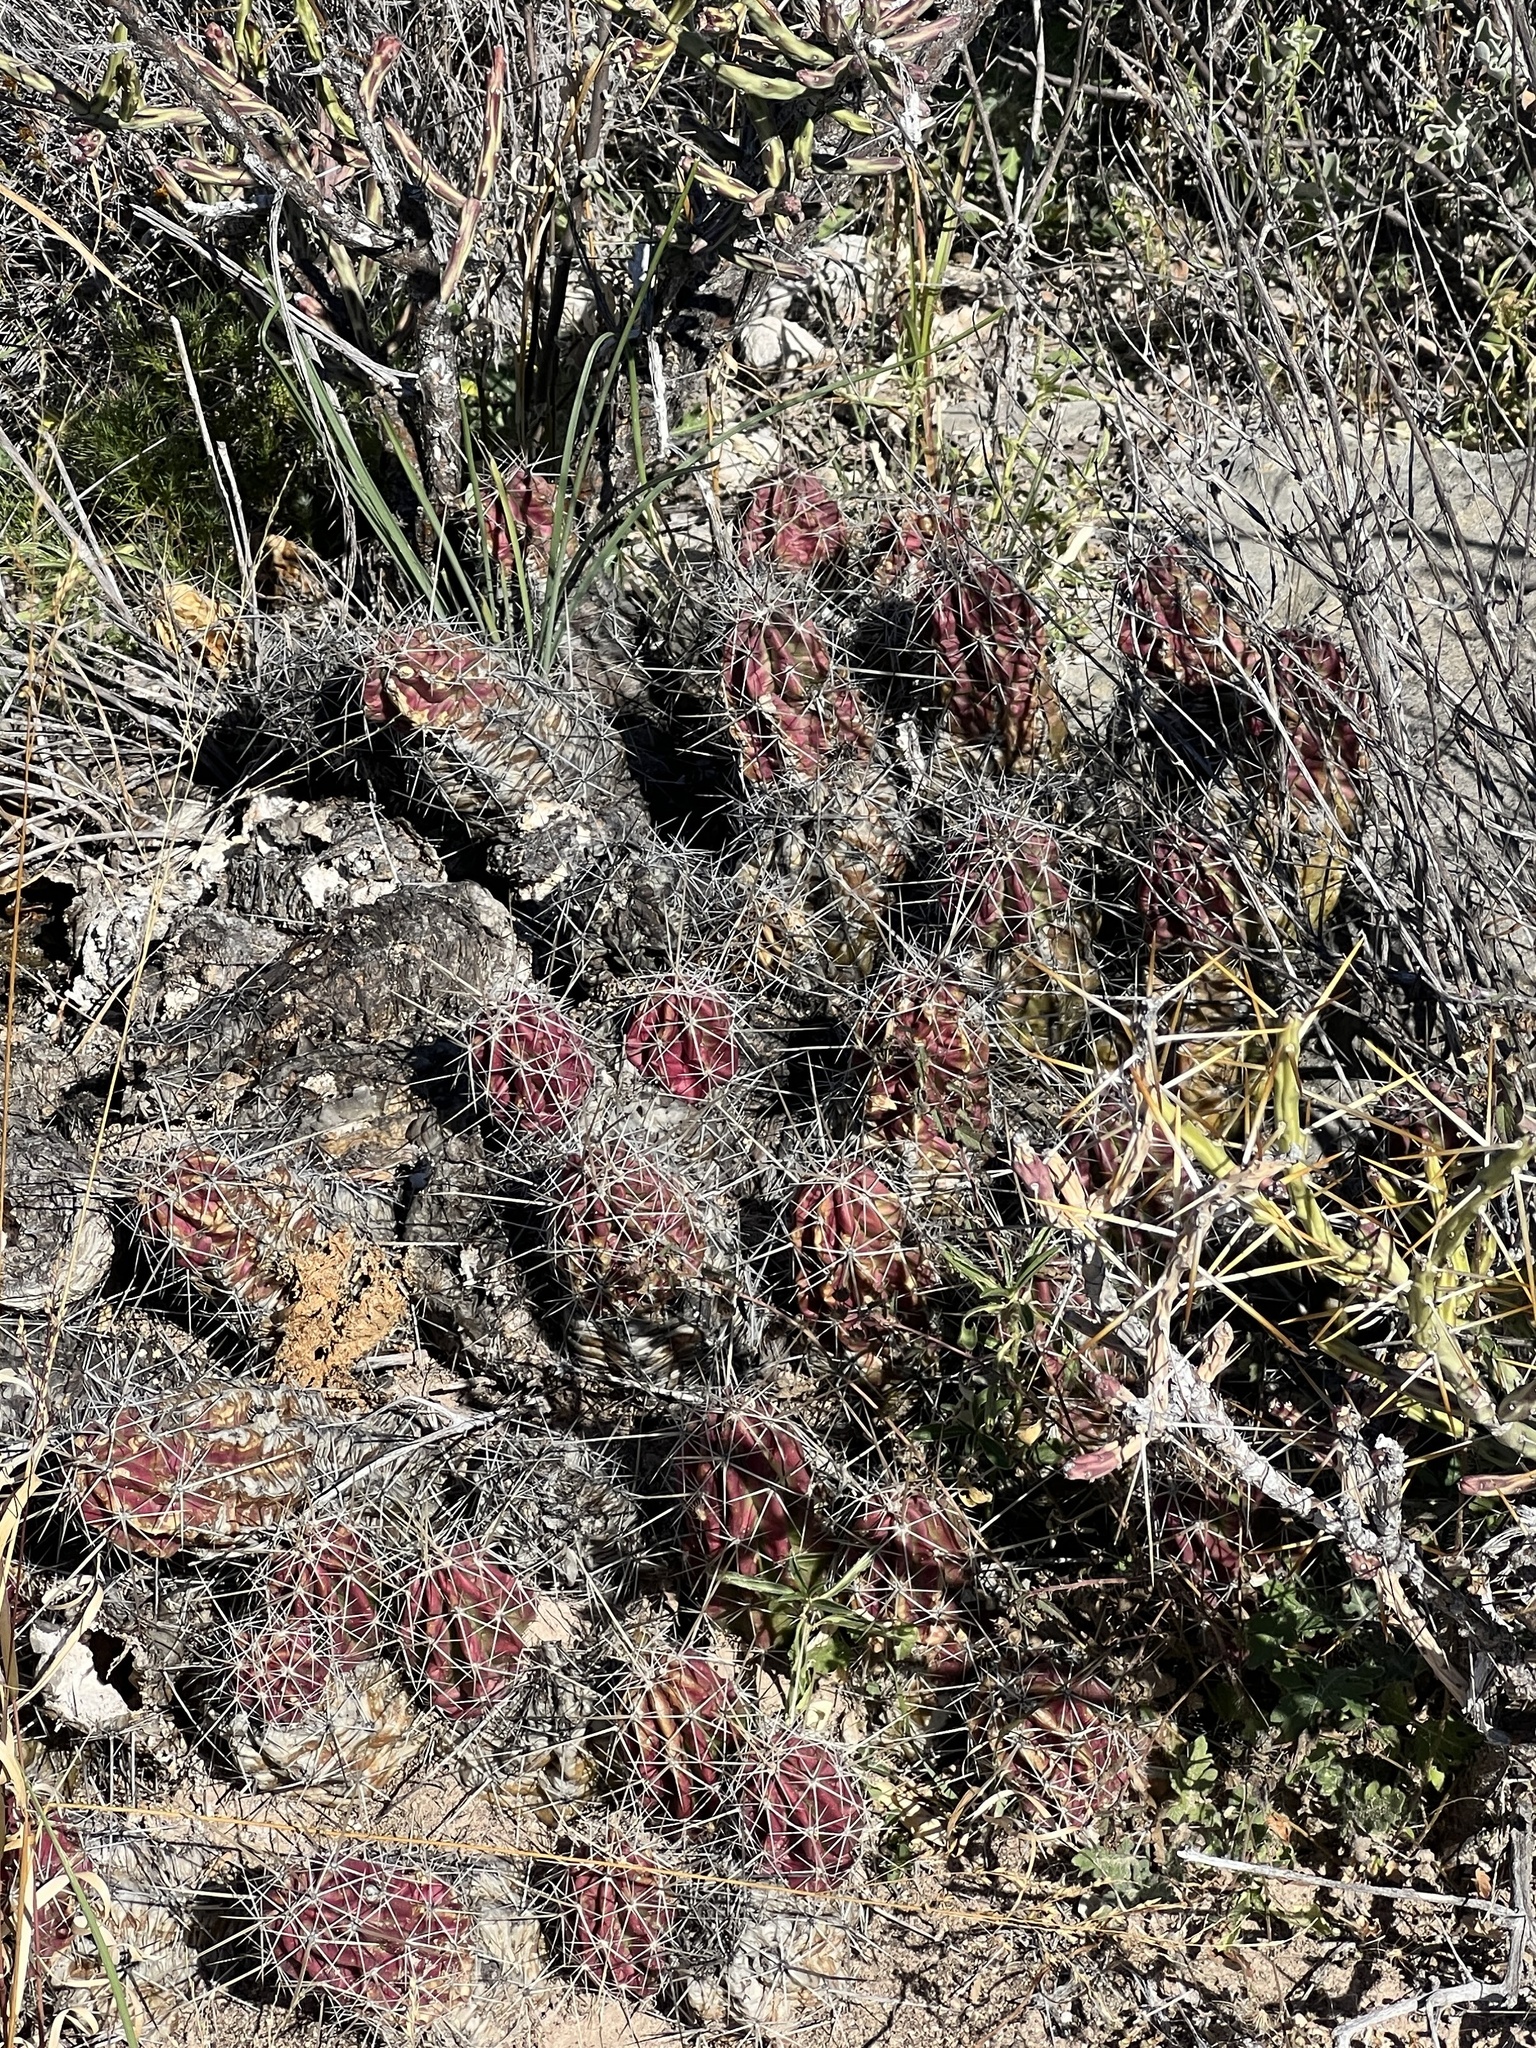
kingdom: Plantae
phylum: Tracheophyta
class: Magnoliopsida
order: Caryophyllales
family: Cactaceae
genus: Echinocereus
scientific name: Echinocereus enneacanthus
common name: Pitaya
